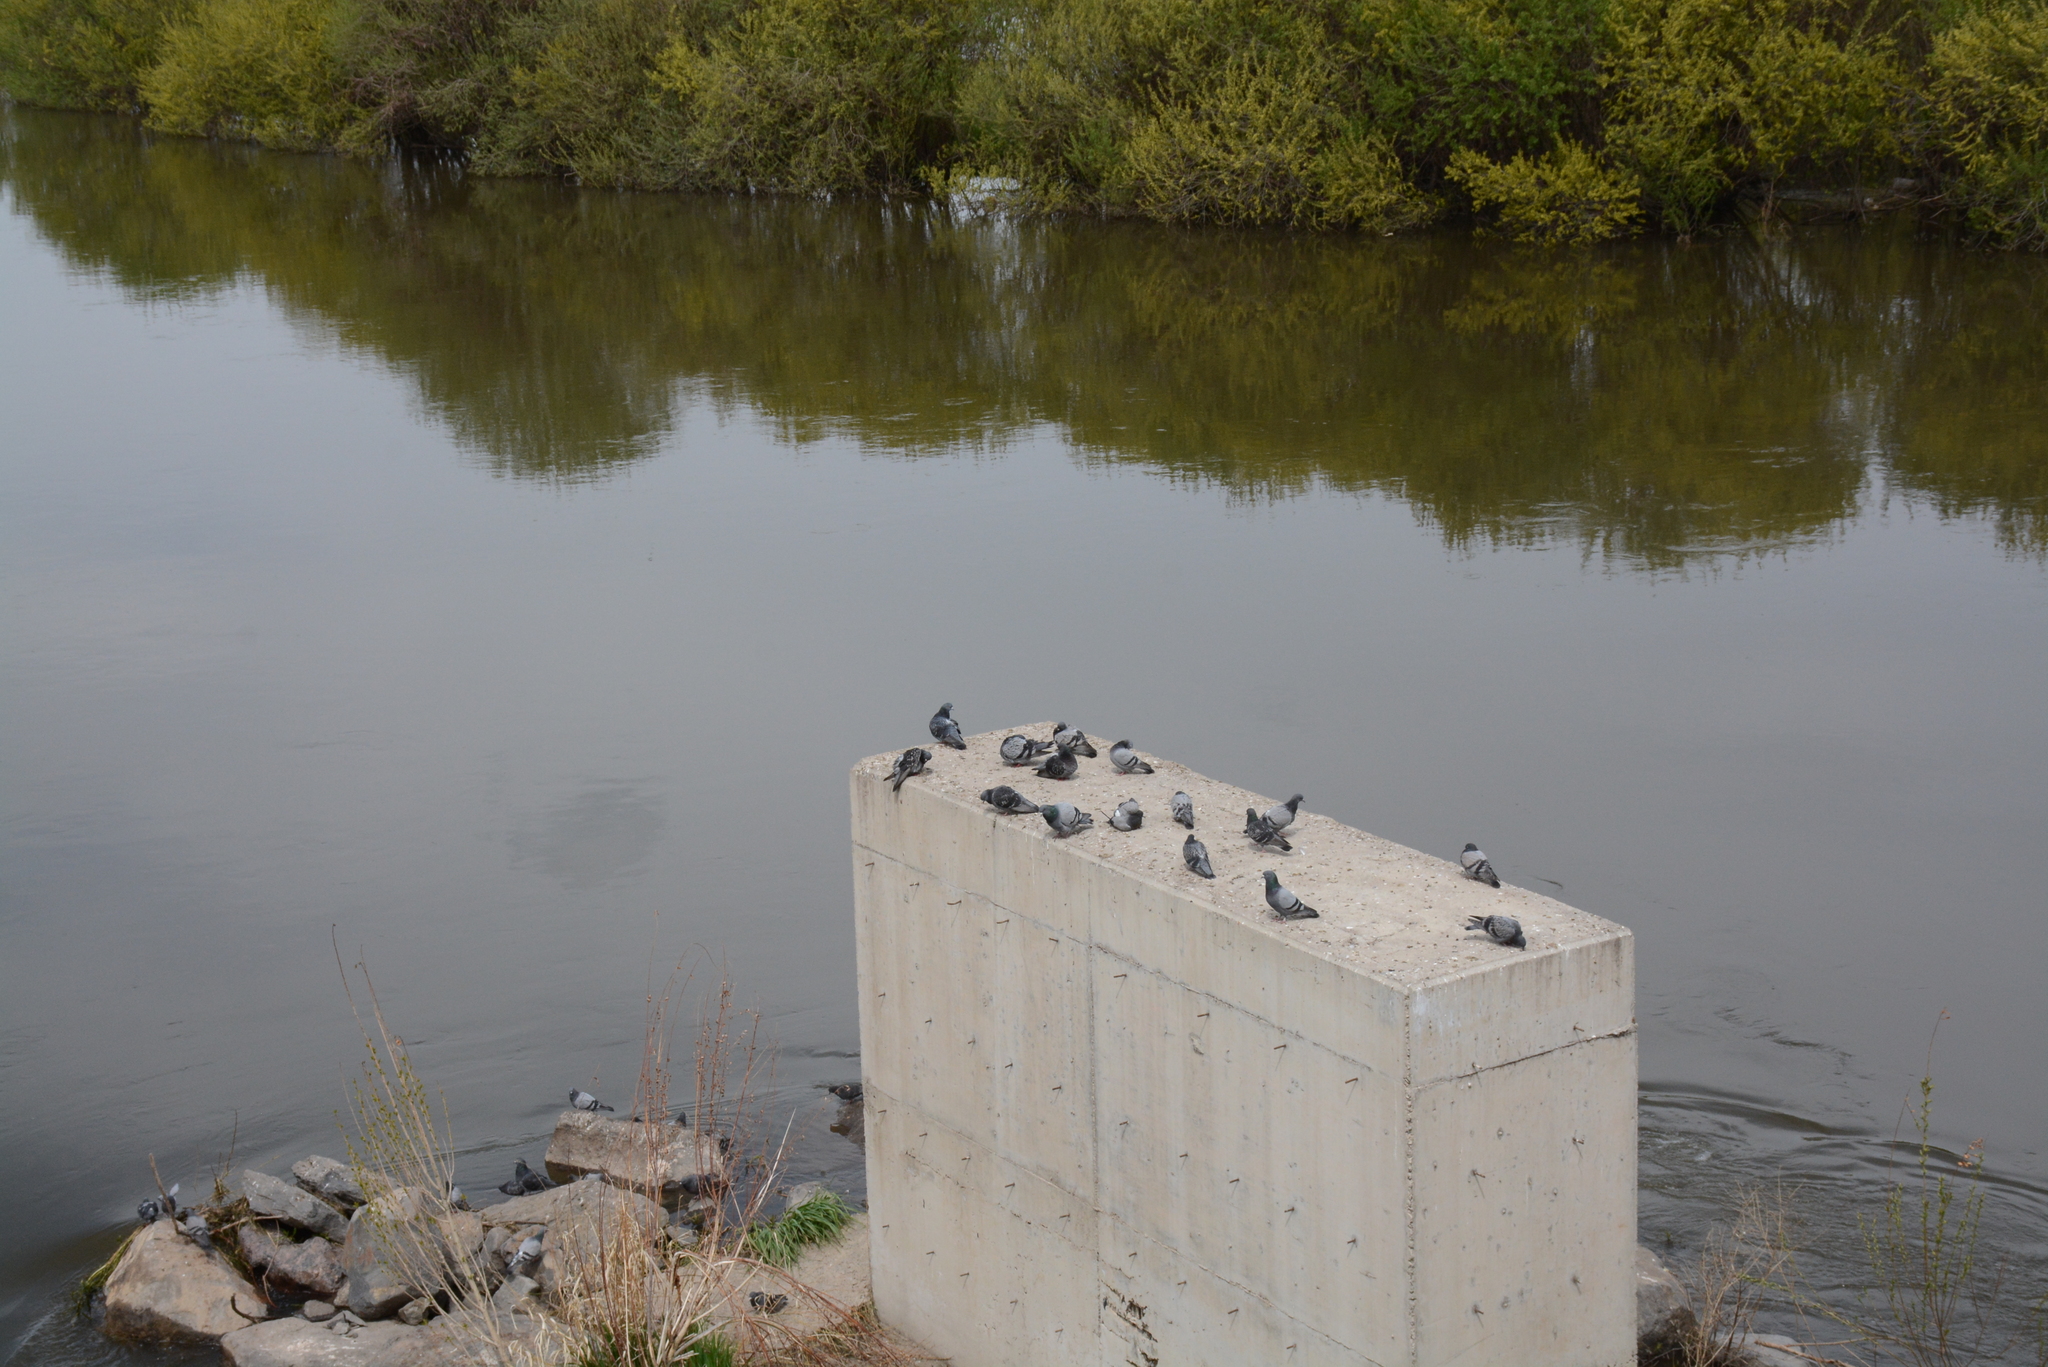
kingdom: Animalia
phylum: Chordata
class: Aves
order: Columbiformes
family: Columbidae
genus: Columba
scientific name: Columba livia
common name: Rock pigeon
